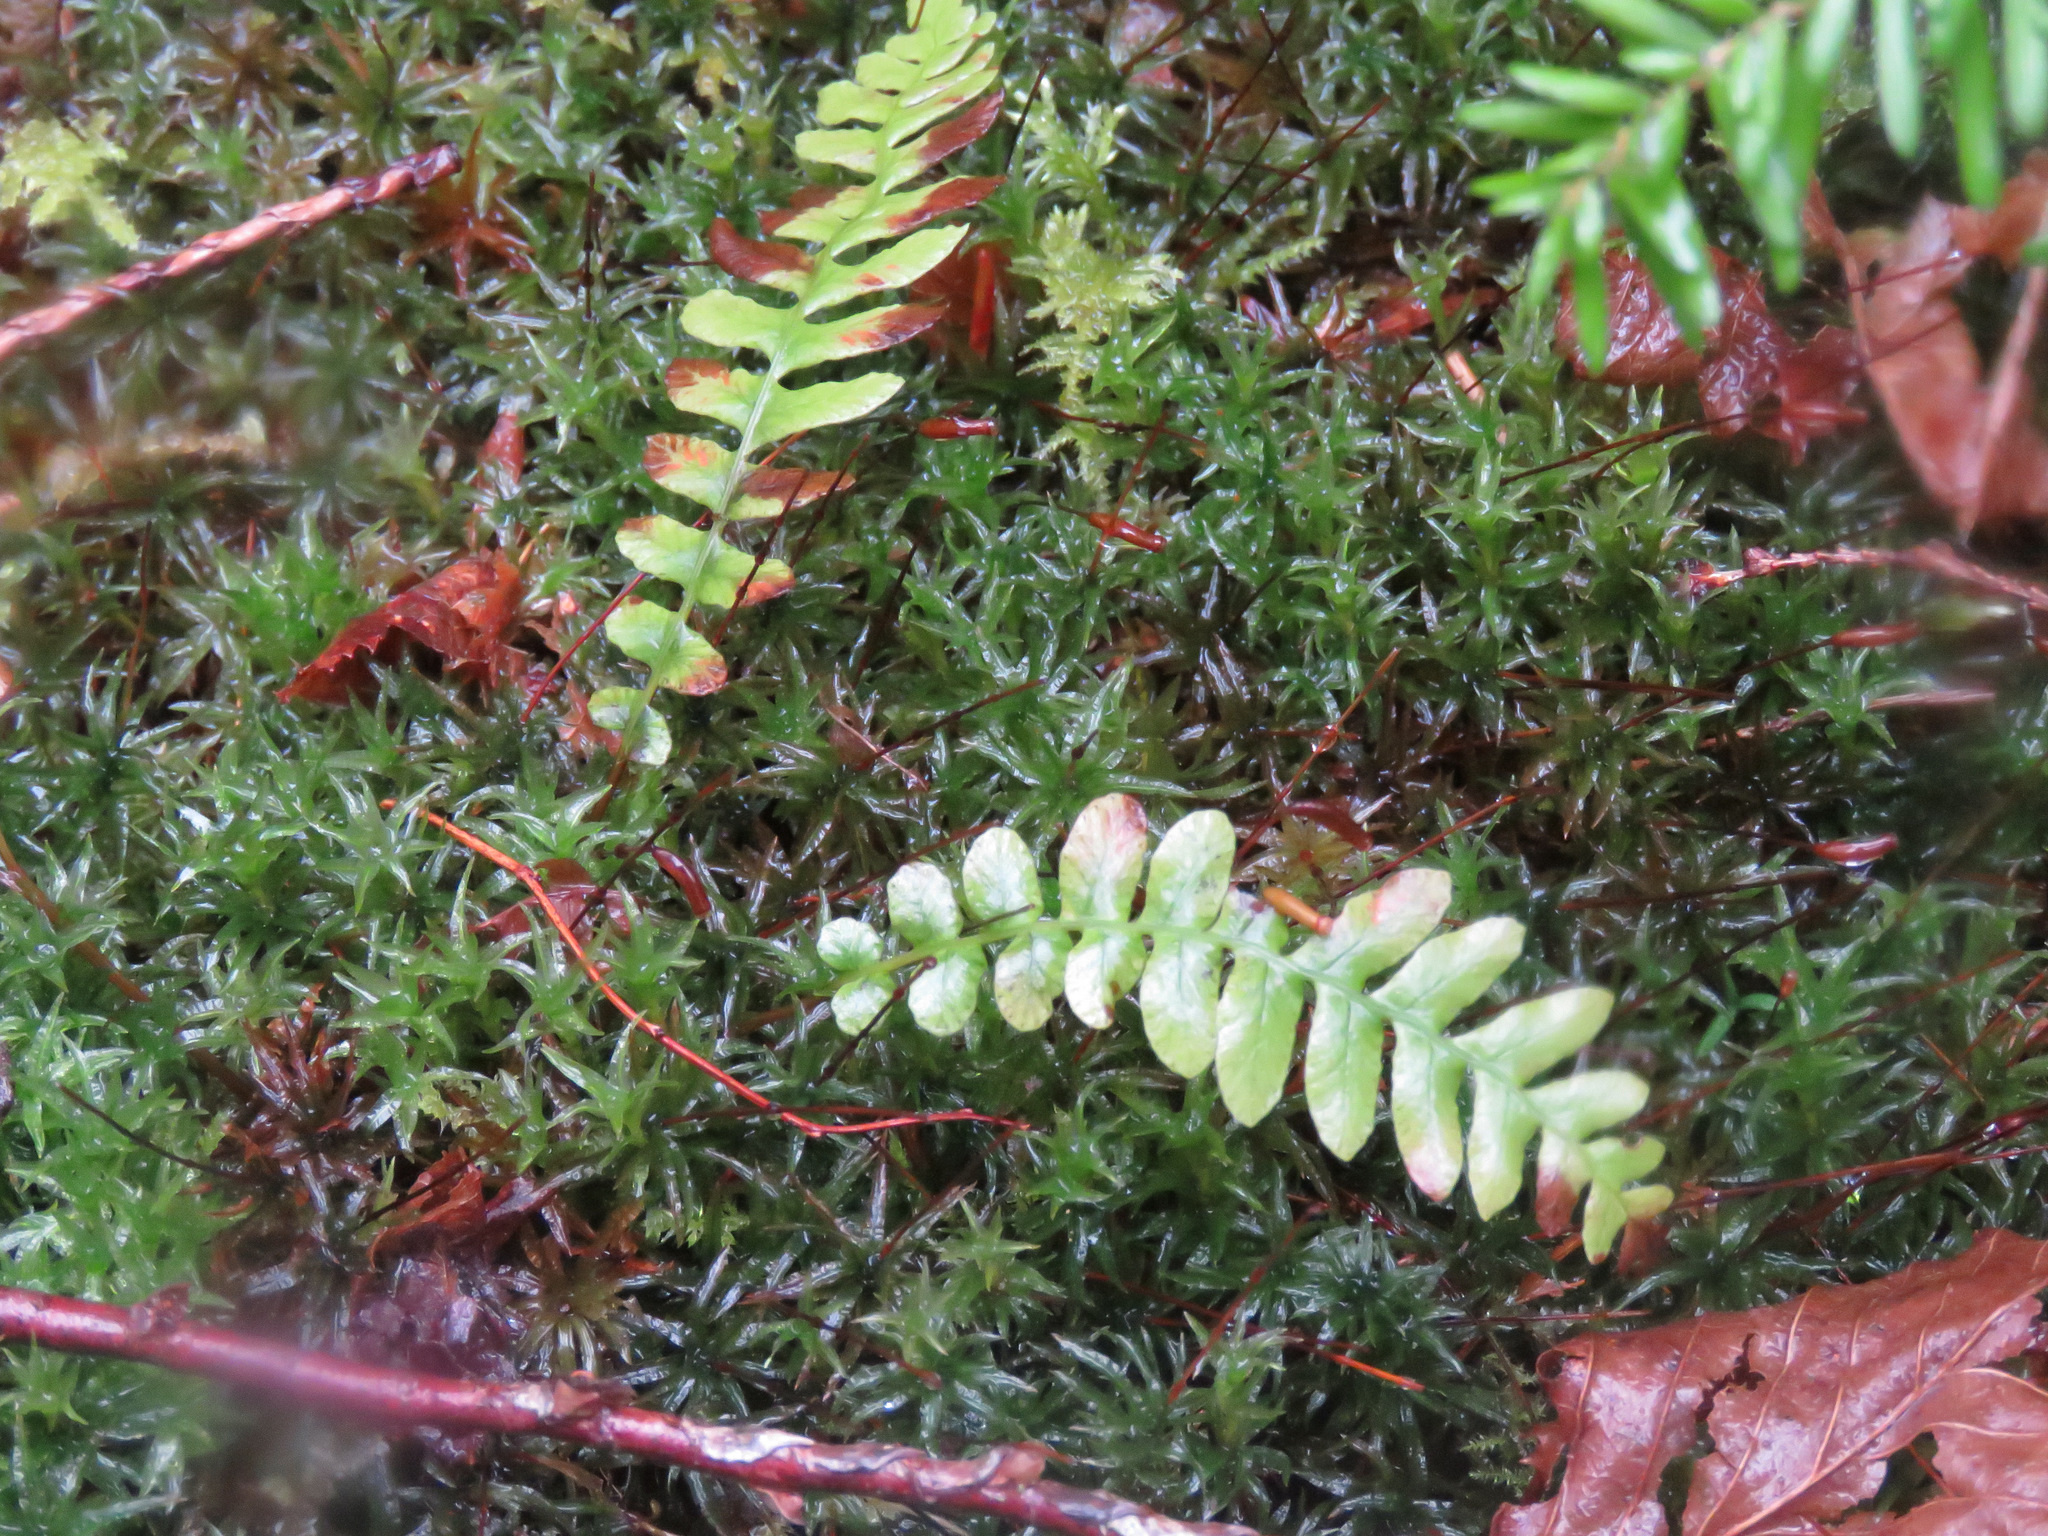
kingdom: Plantae
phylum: Tracheophyta
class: Polypodiopsida
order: Polypodiales
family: Blechnaceae
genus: Struthiopteris
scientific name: Struthiopteris spicant
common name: Deer fern
